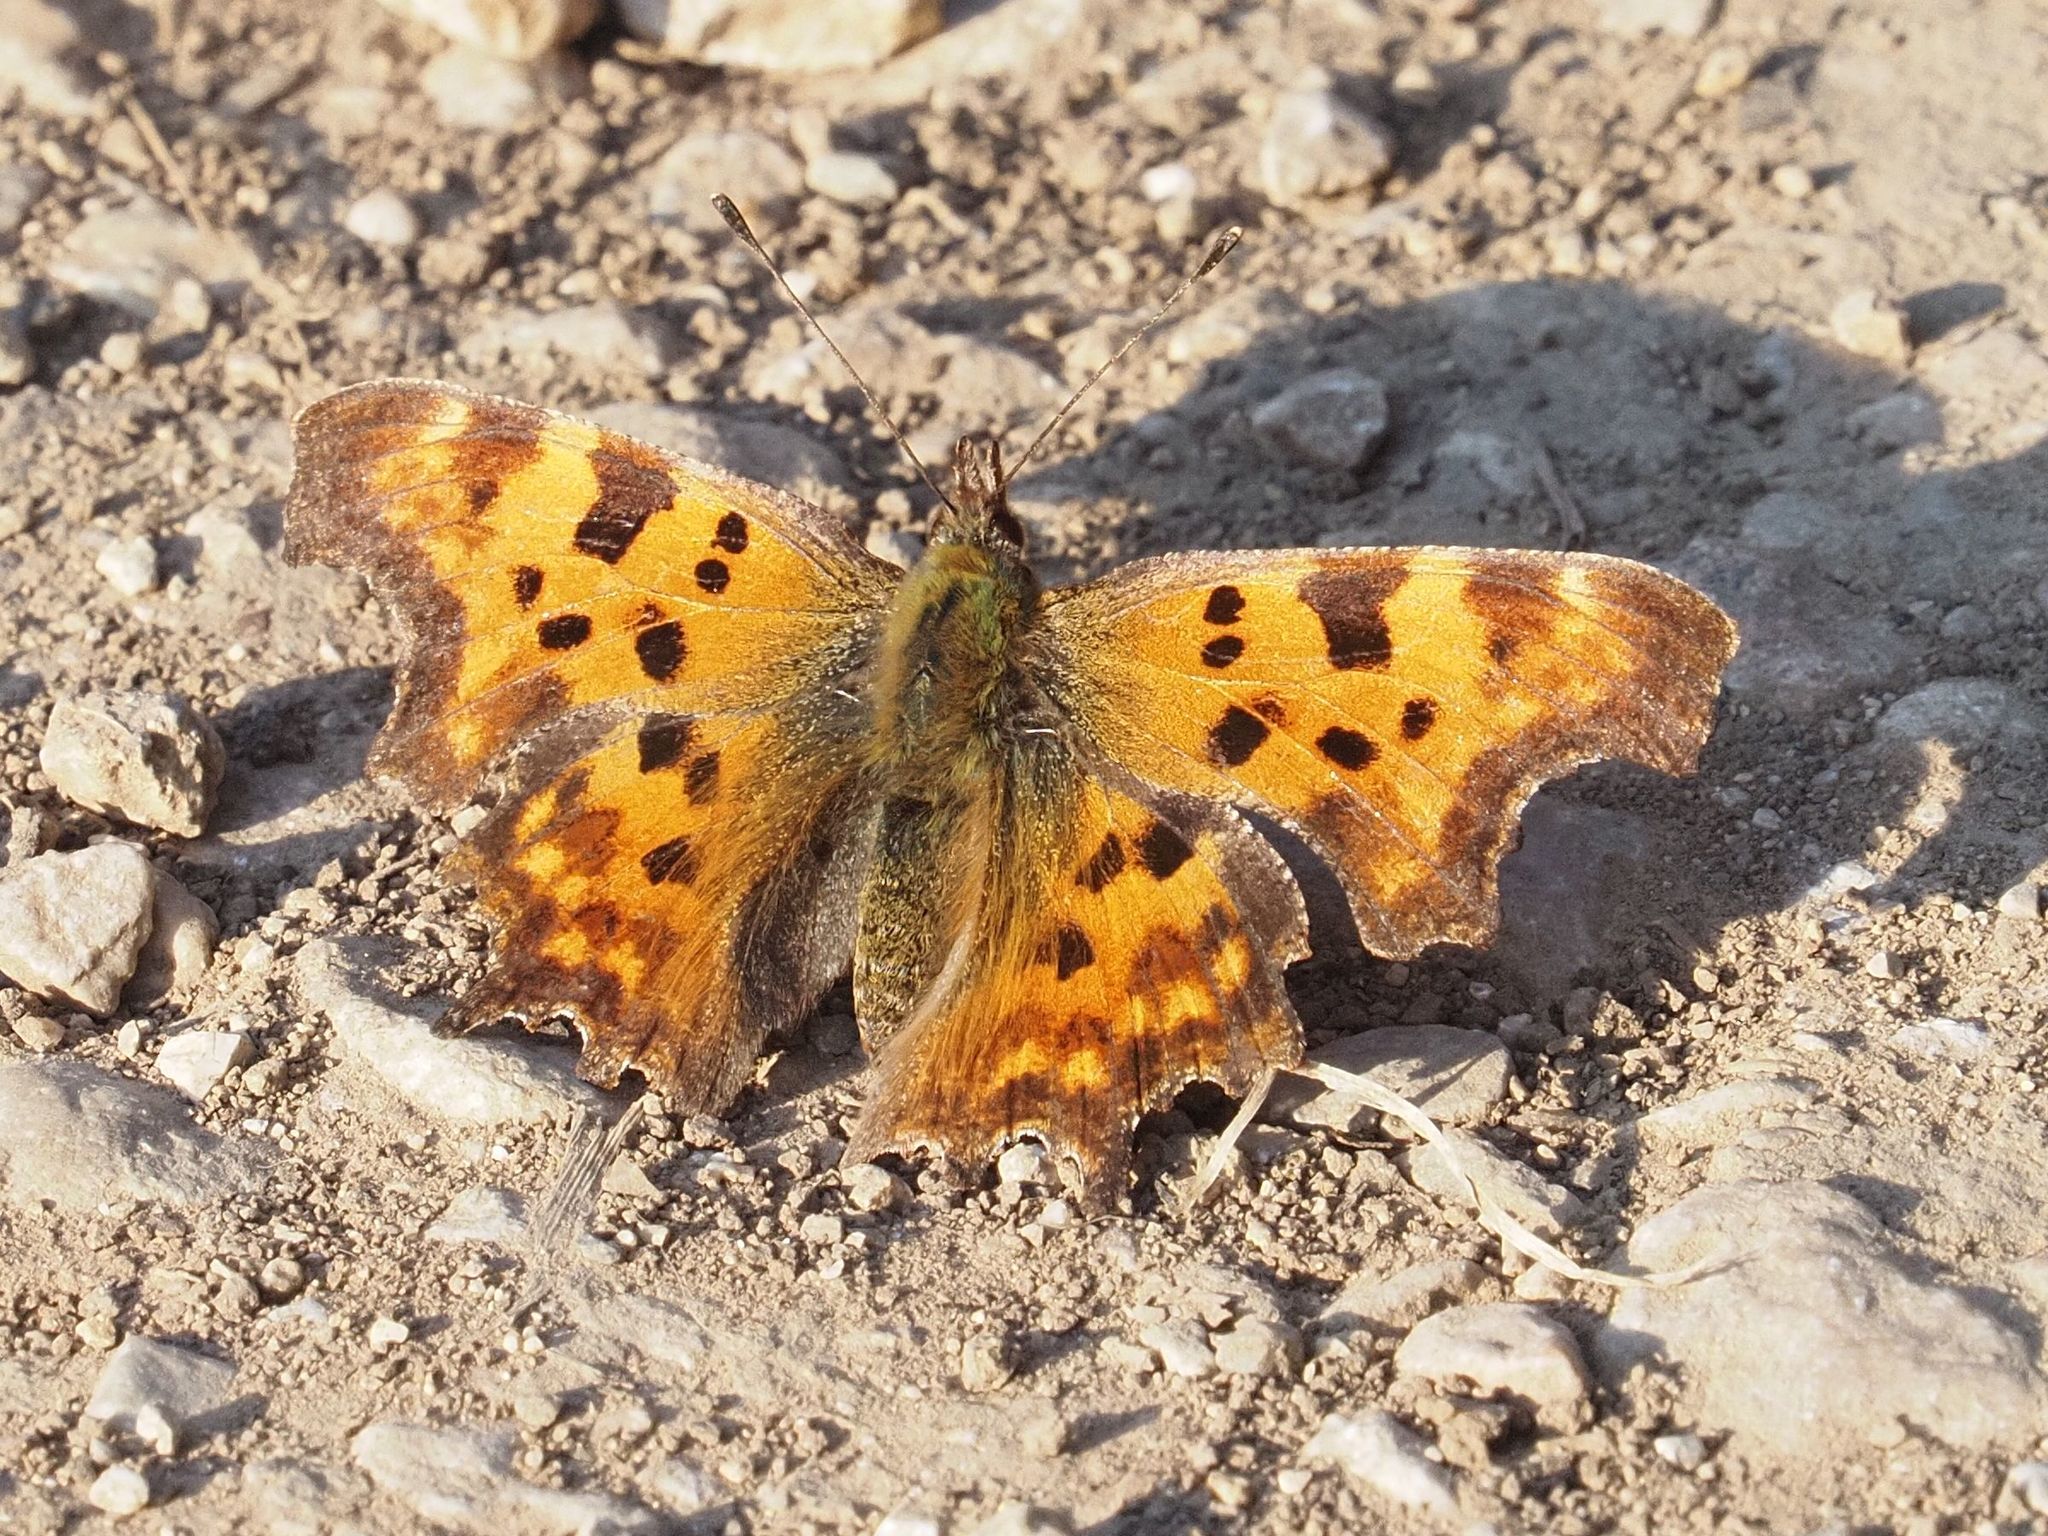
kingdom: Animalia
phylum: Arthropoda
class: Insecta
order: Lepidoptera
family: Nymphalidae
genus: Polygonia
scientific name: Polygonia c-album
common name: Comma
